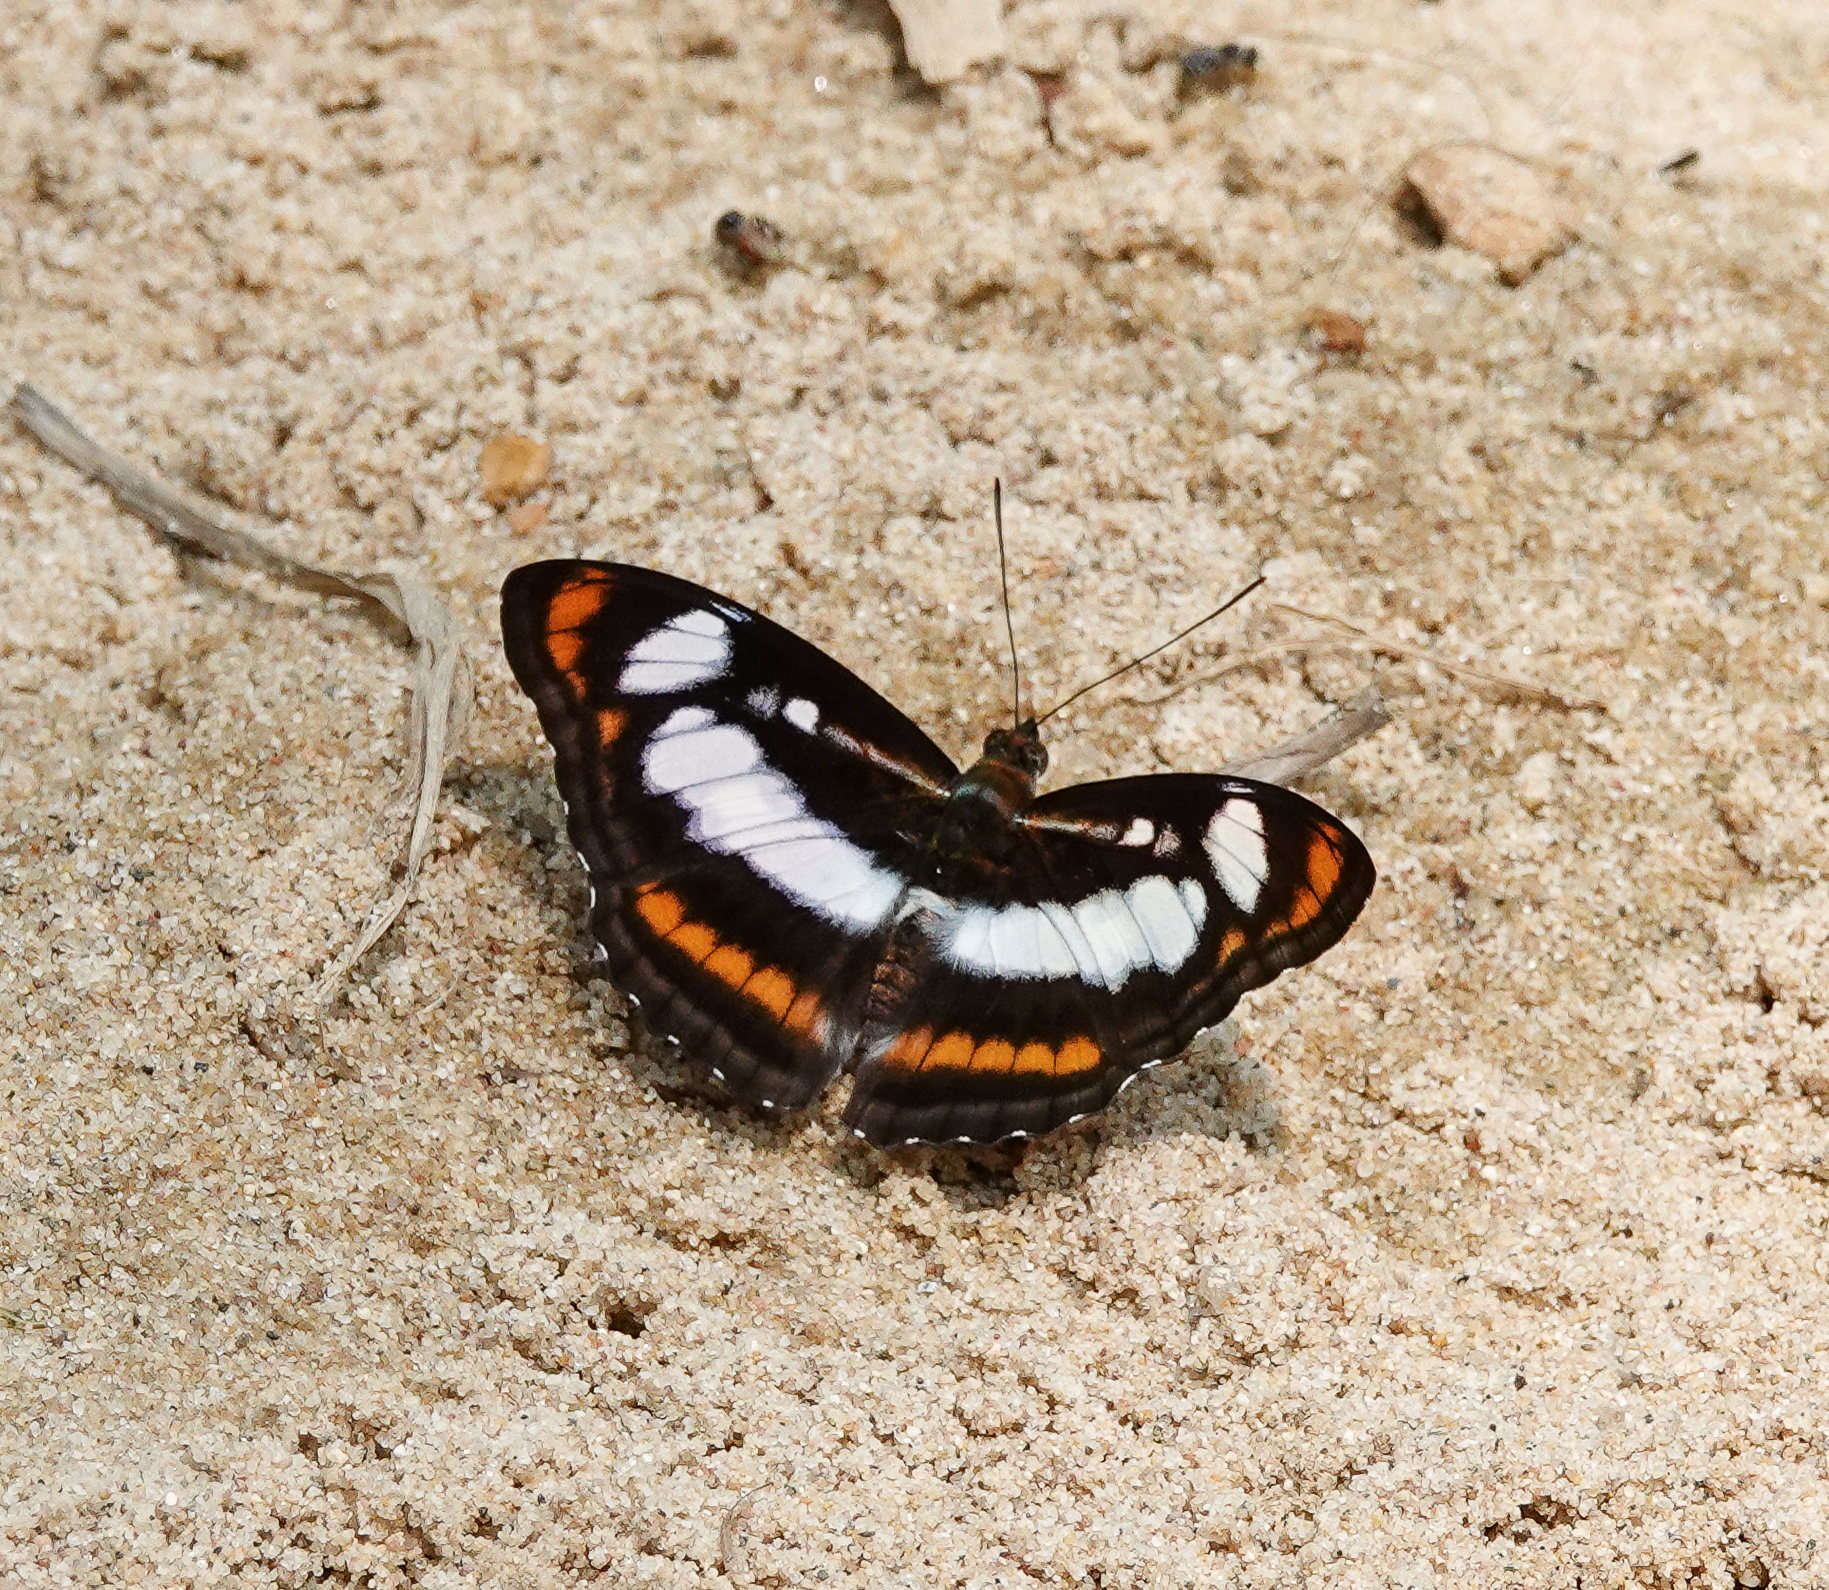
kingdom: Animalia
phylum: Arthropoda
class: Insecta
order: Lepidoptera
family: Nymphalidae
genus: Parathyma
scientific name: Parathyma nefte
